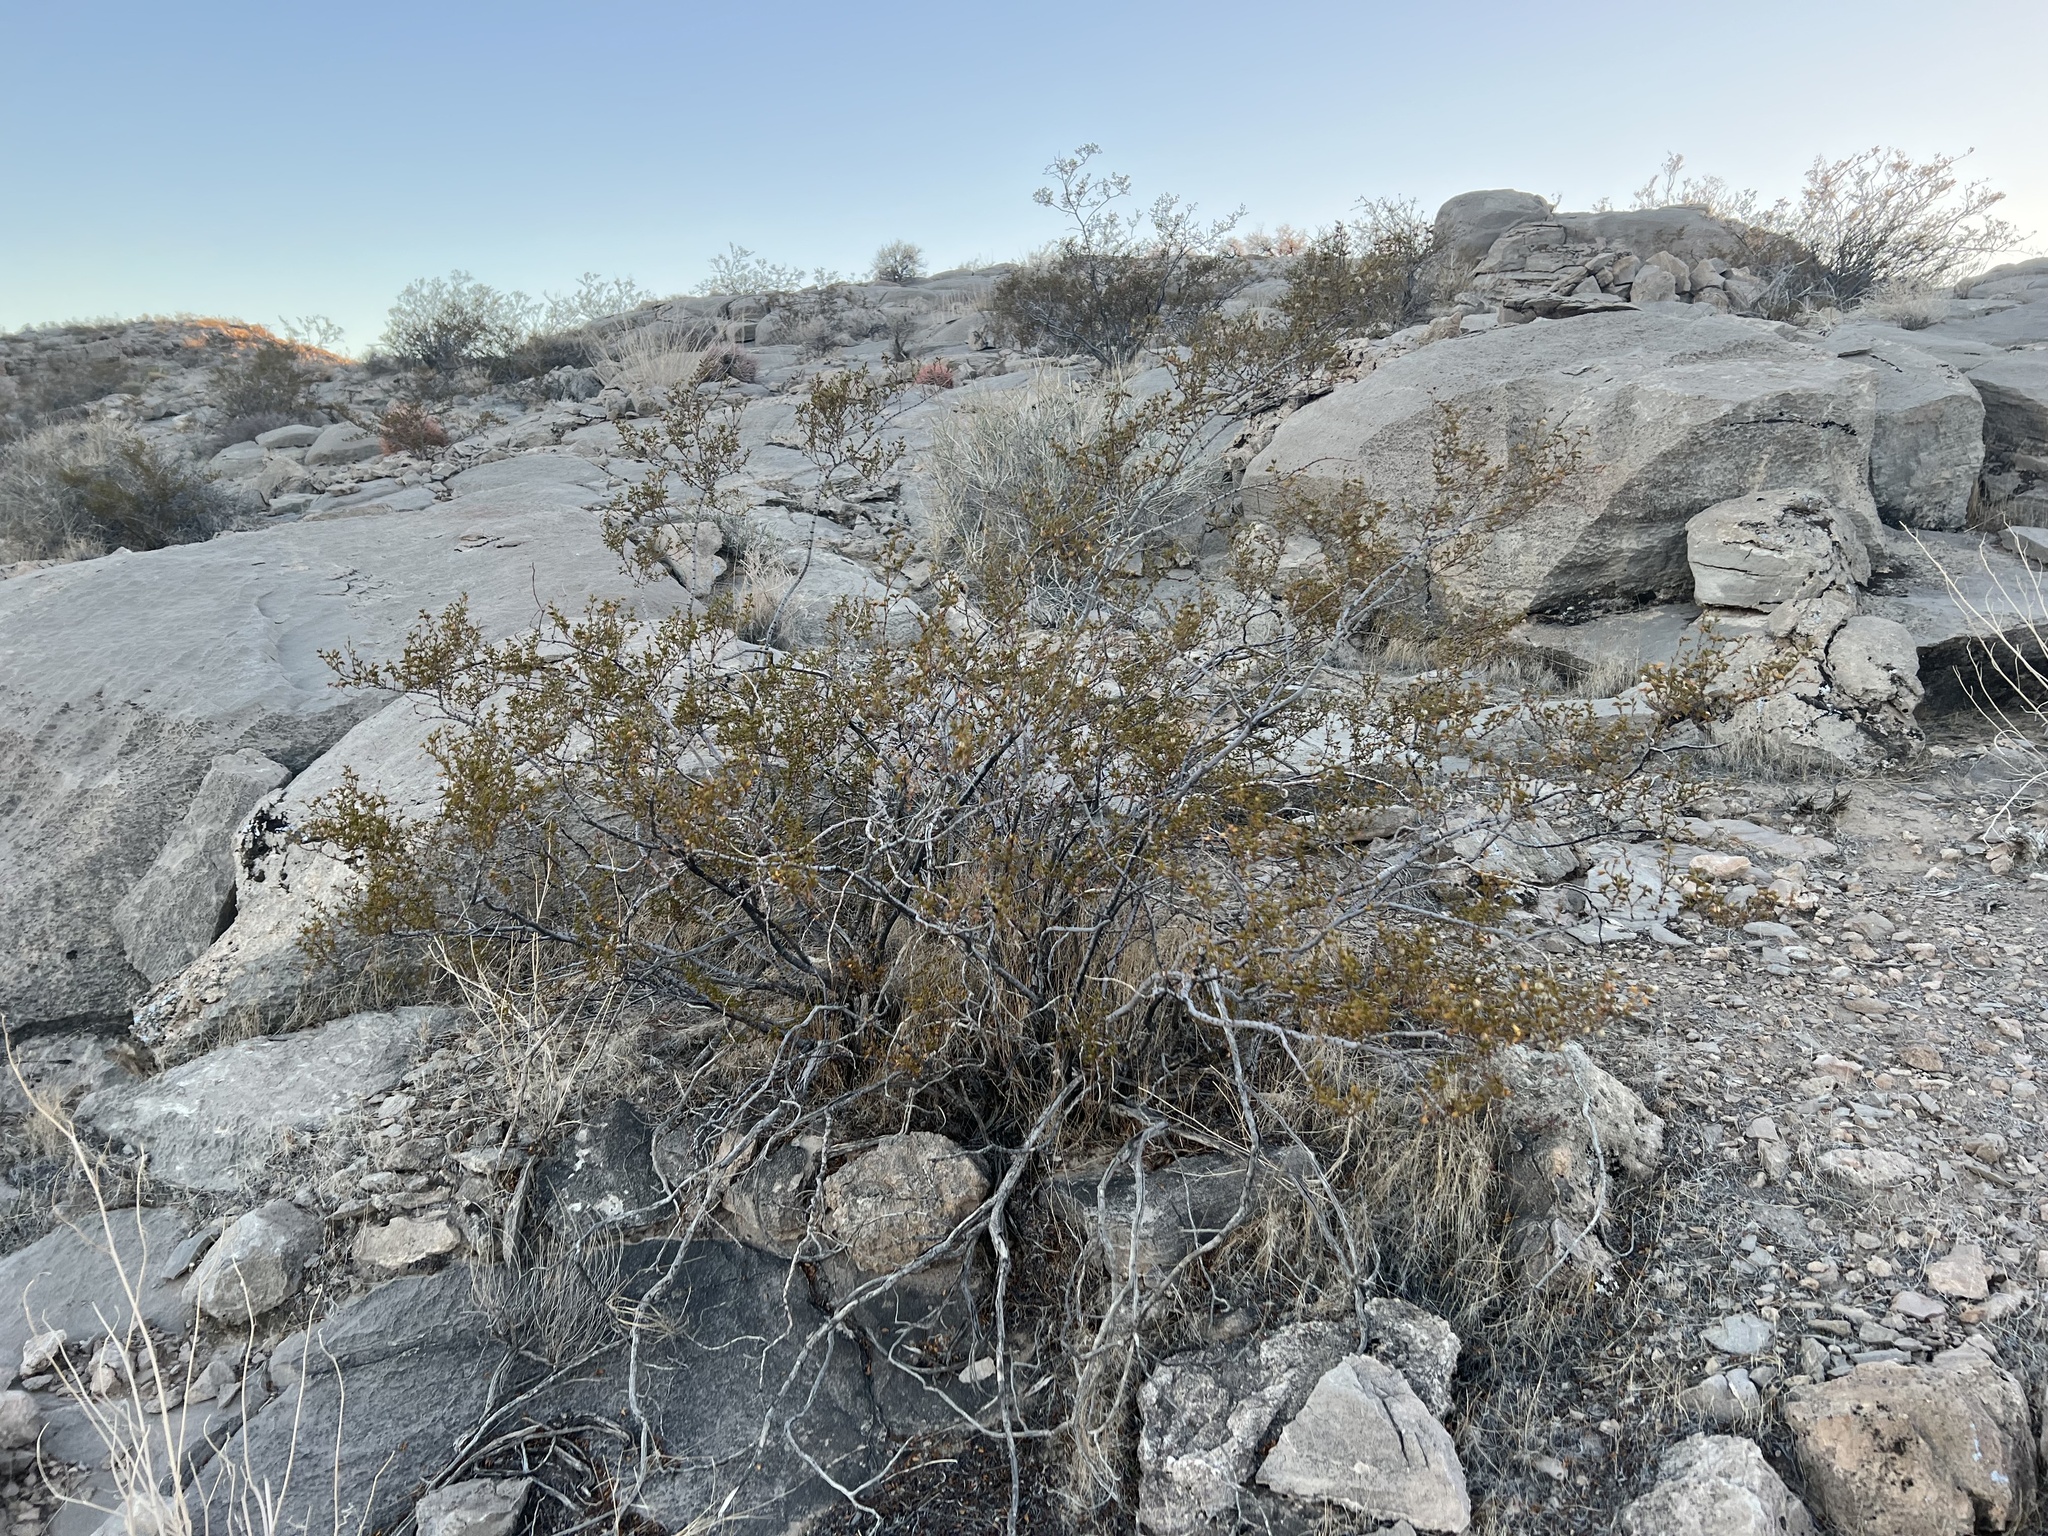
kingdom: Plantae
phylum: Tracheophyta
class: Magnoliopsida
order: Zygophyllales
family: Zygophyllaceae
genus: Larrea
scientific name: Larrea tridentata
